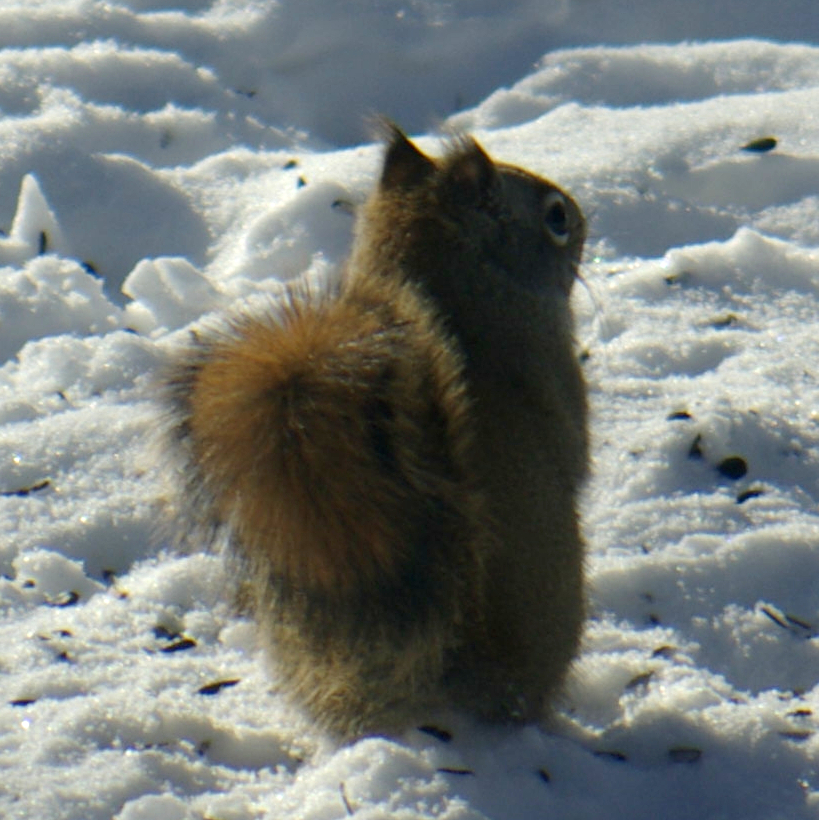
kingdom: Animalia
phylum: Chordata
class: Mammalia
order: Rodentia
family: Sciuridae
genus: Tamiasciurus
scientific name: Tamiasciurus hudsonicus
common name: Red squirrel
